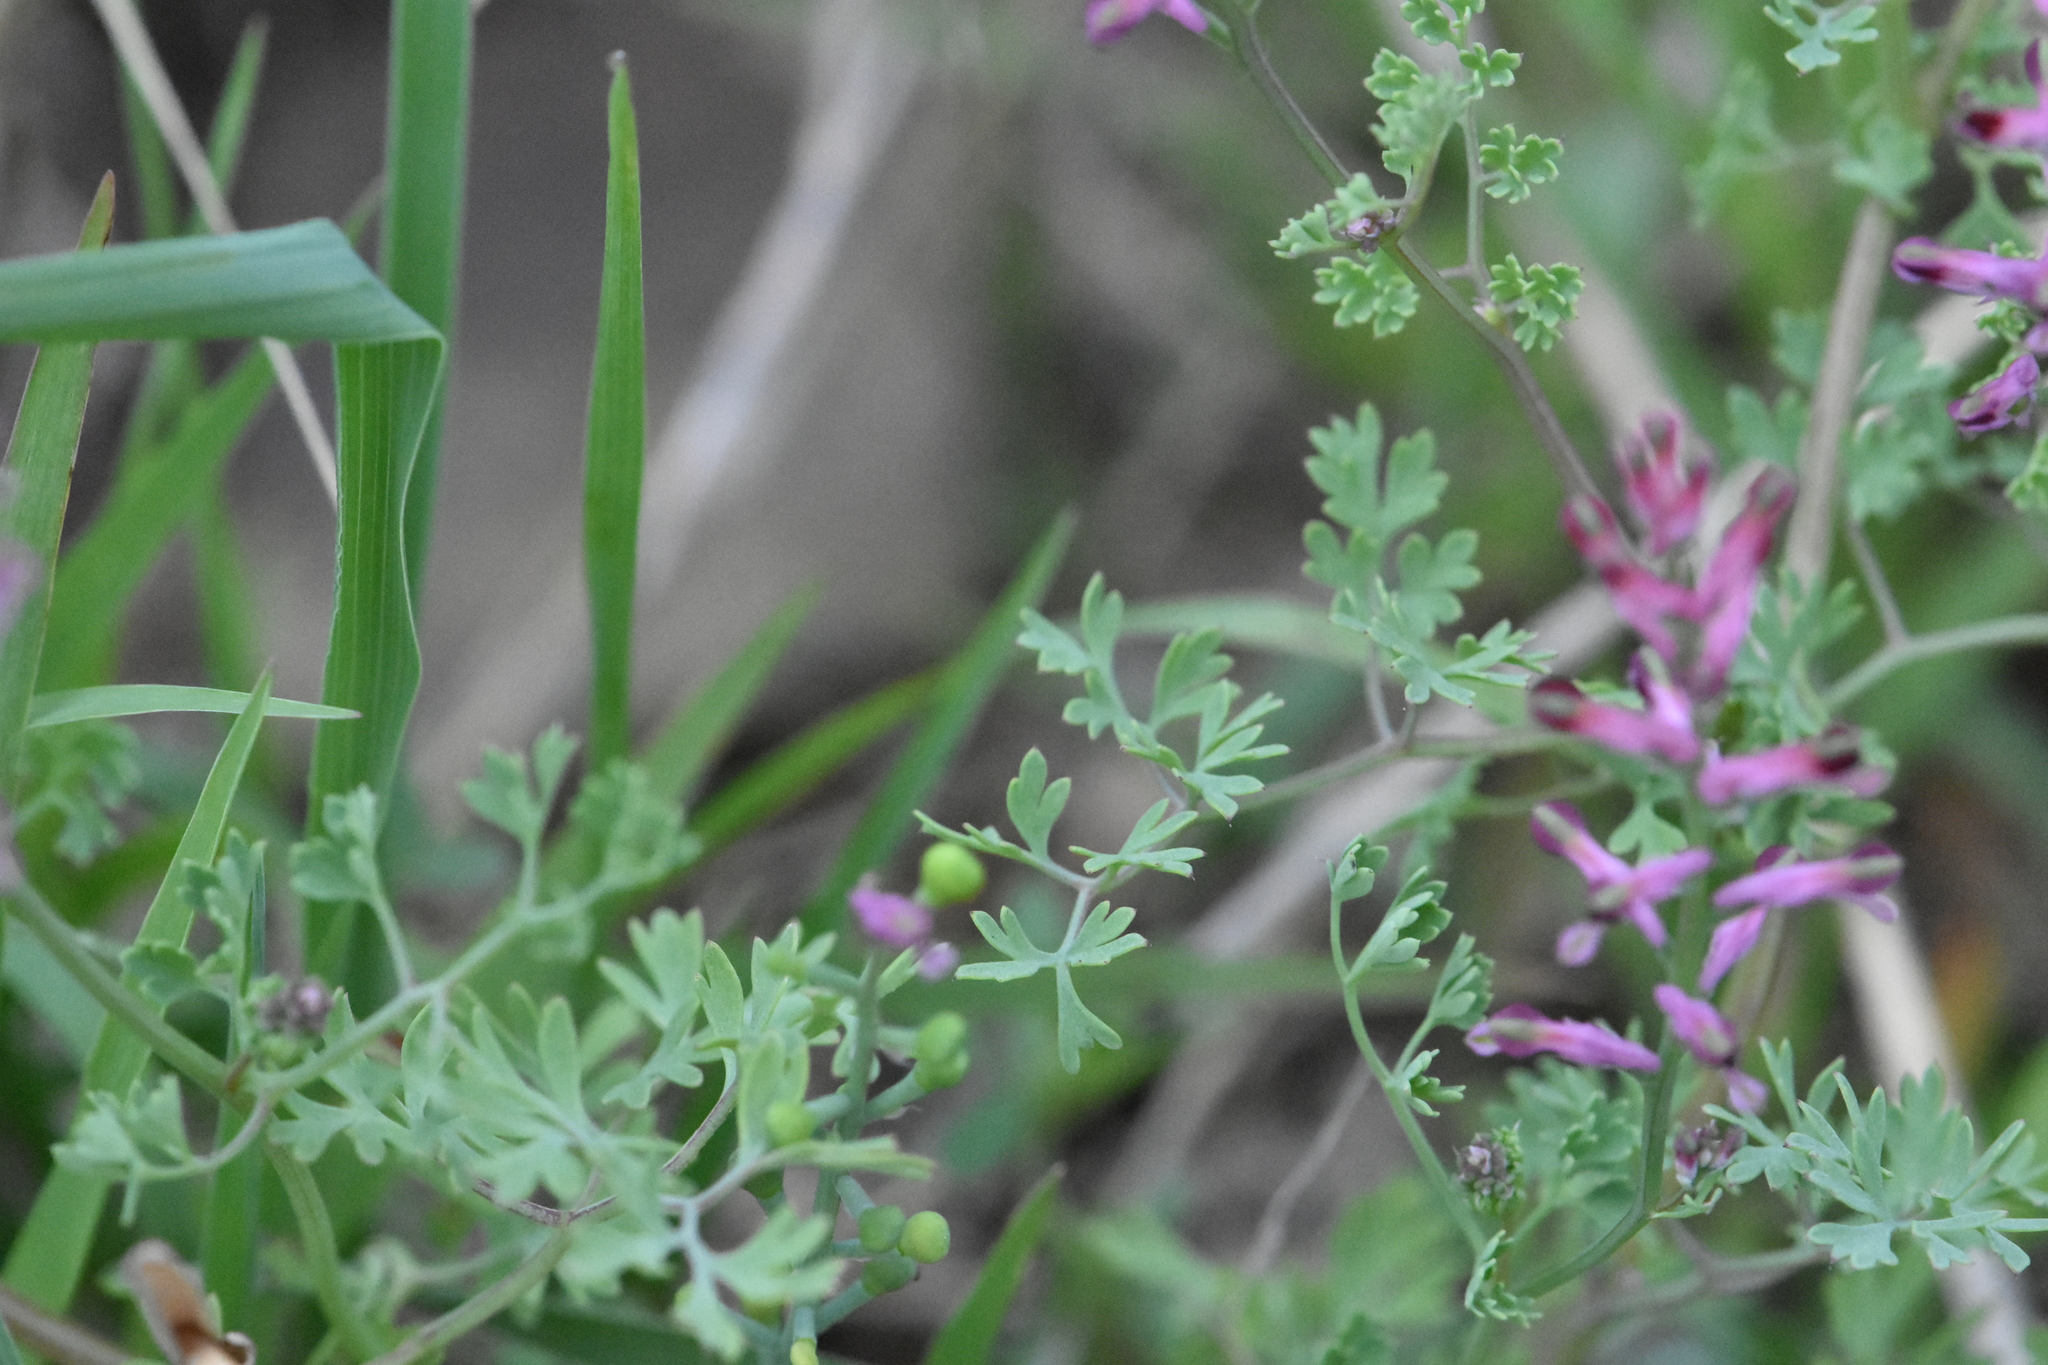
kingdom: Plantae
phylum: Tracheophyta
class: Magnoliopsida
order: Ranunculales
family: Papaveraceae
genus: Fumaria
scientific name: Fumaria schleicheri
